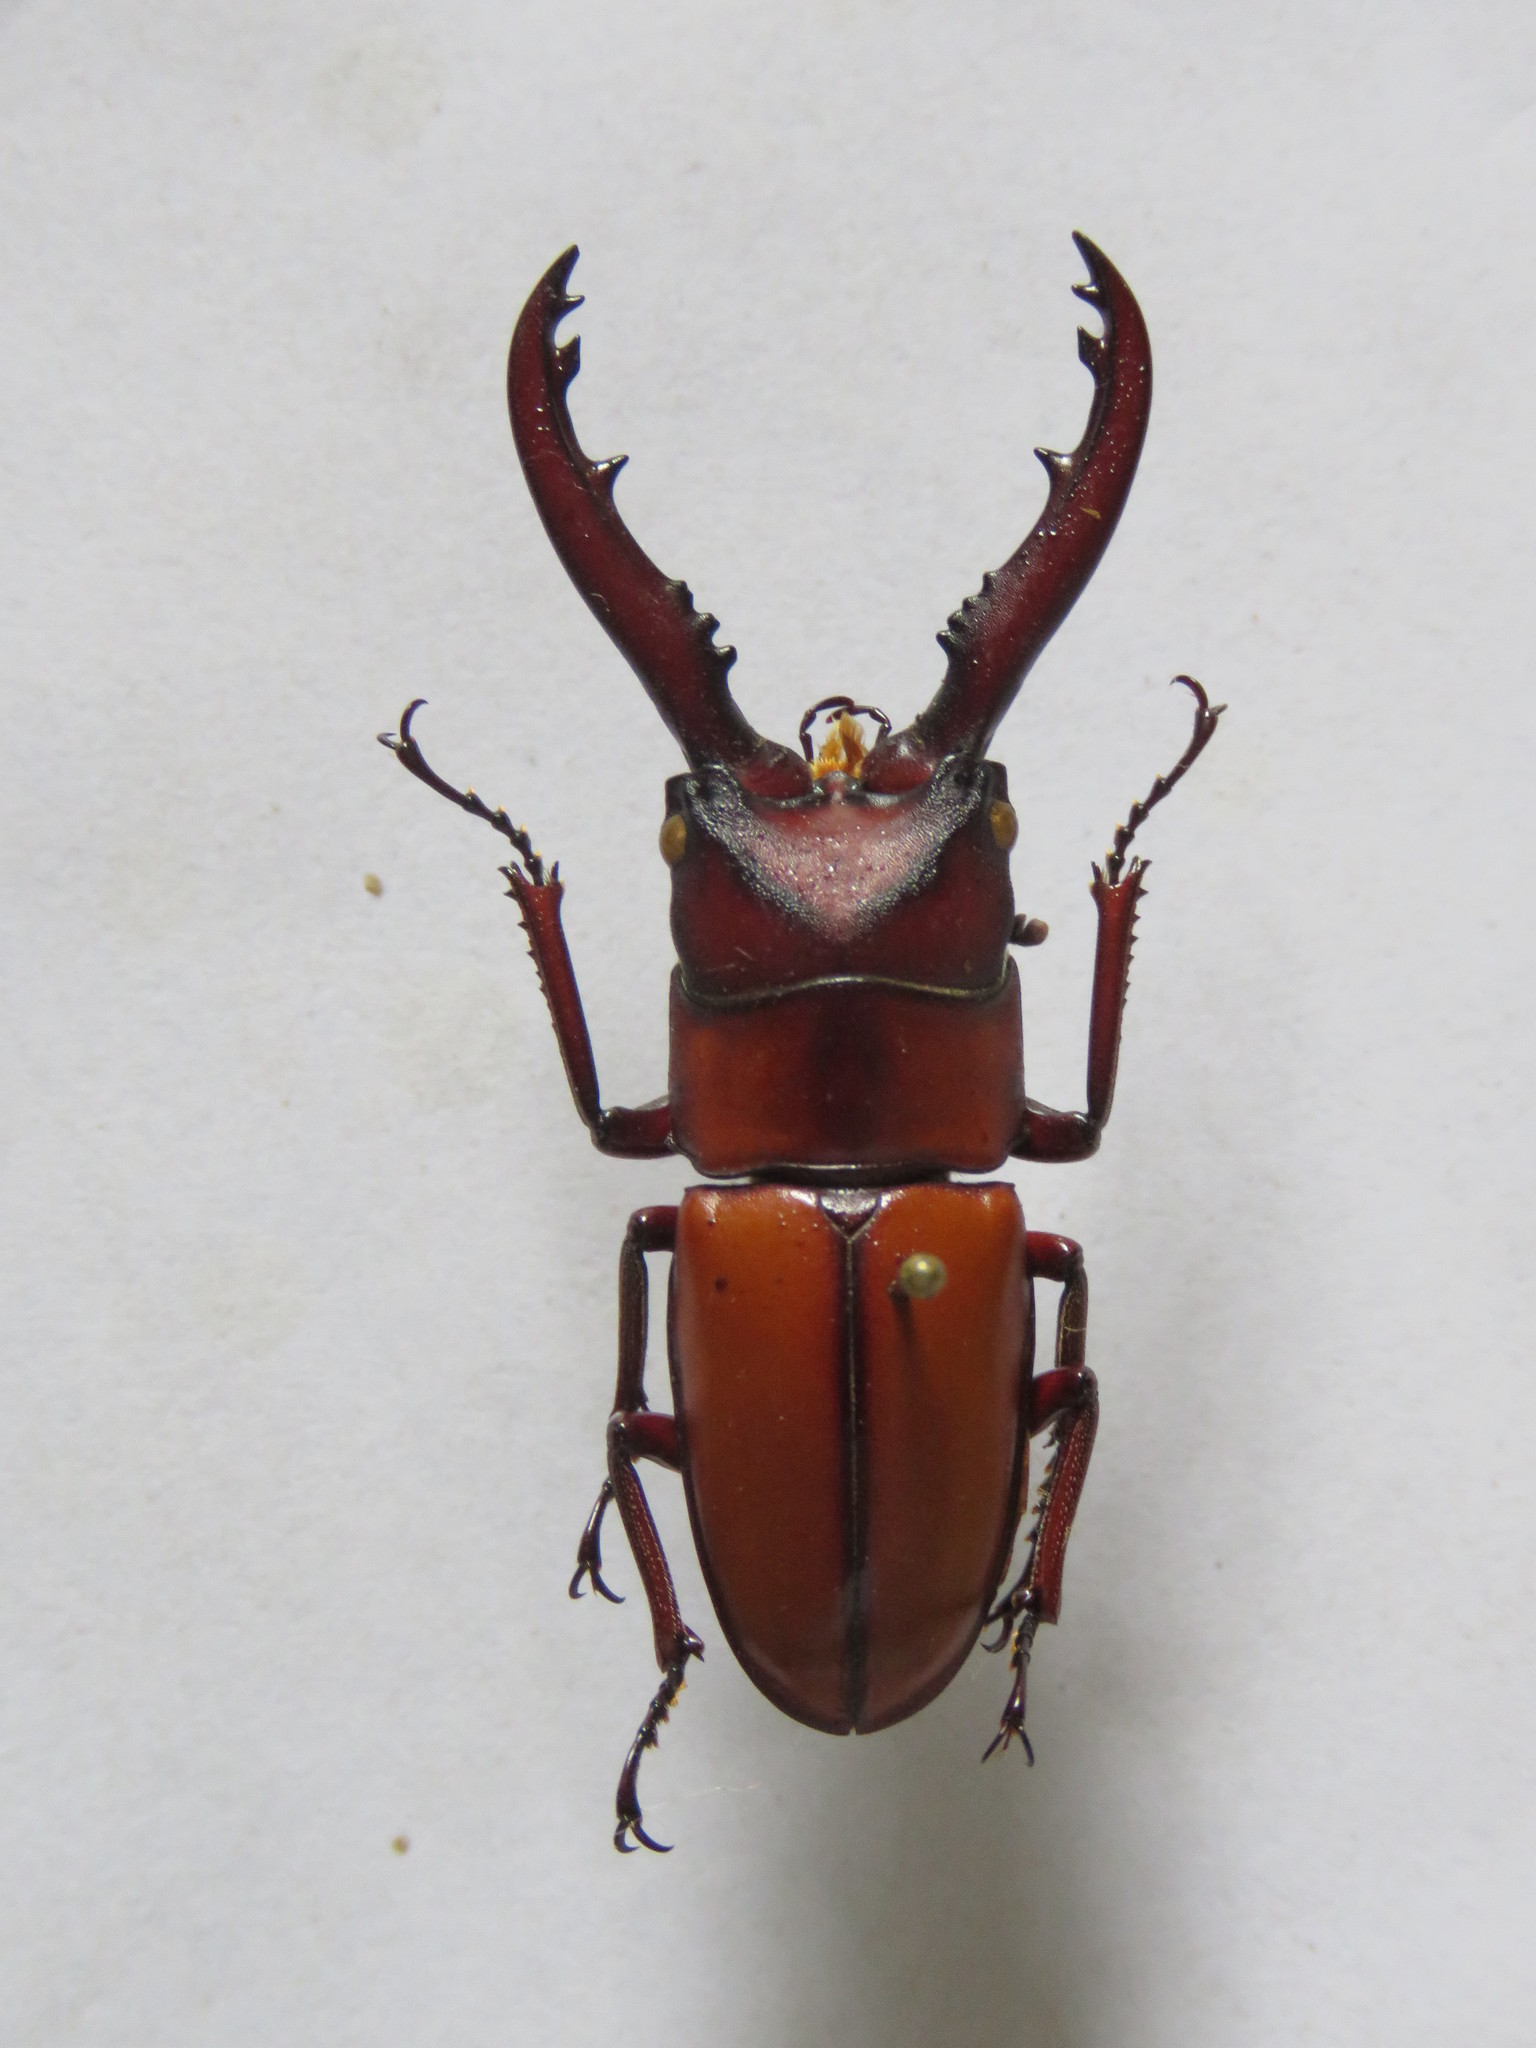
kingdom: Animalia
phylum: Arthropoda
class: Insecta
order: Coleoptera
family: Lucanidae
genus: Prosopocoilus
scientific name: Prosopocoilus mohnikei
